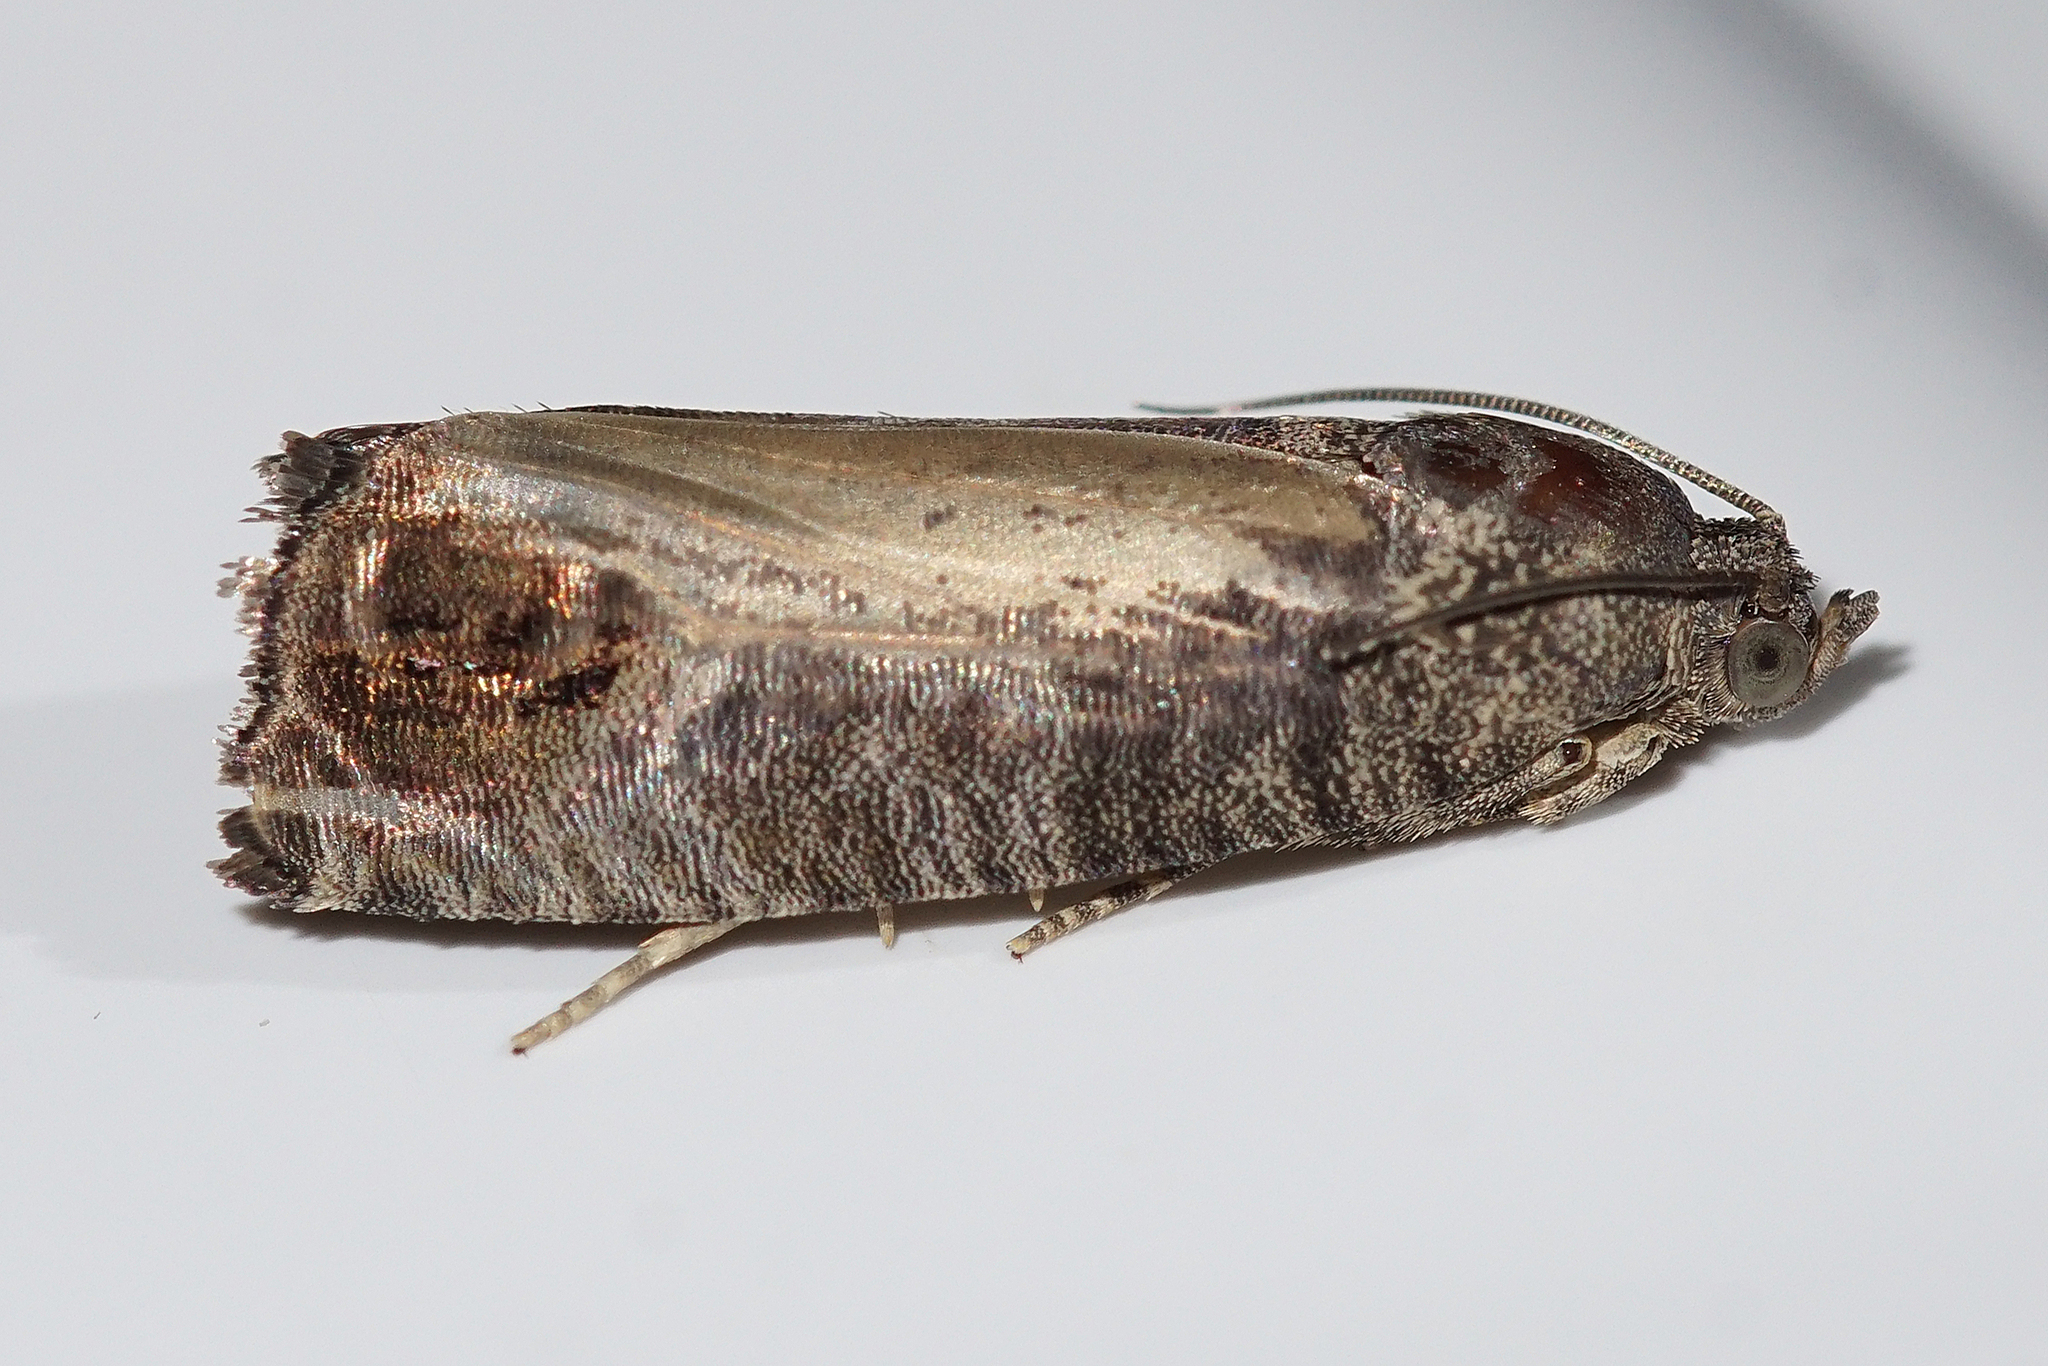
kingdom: Animalia
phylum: Arthropoda
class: Insecta
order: Lepidoptera
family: Tortricidae
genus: Cydia
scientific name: Cydia pomonella
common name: Codling moth
